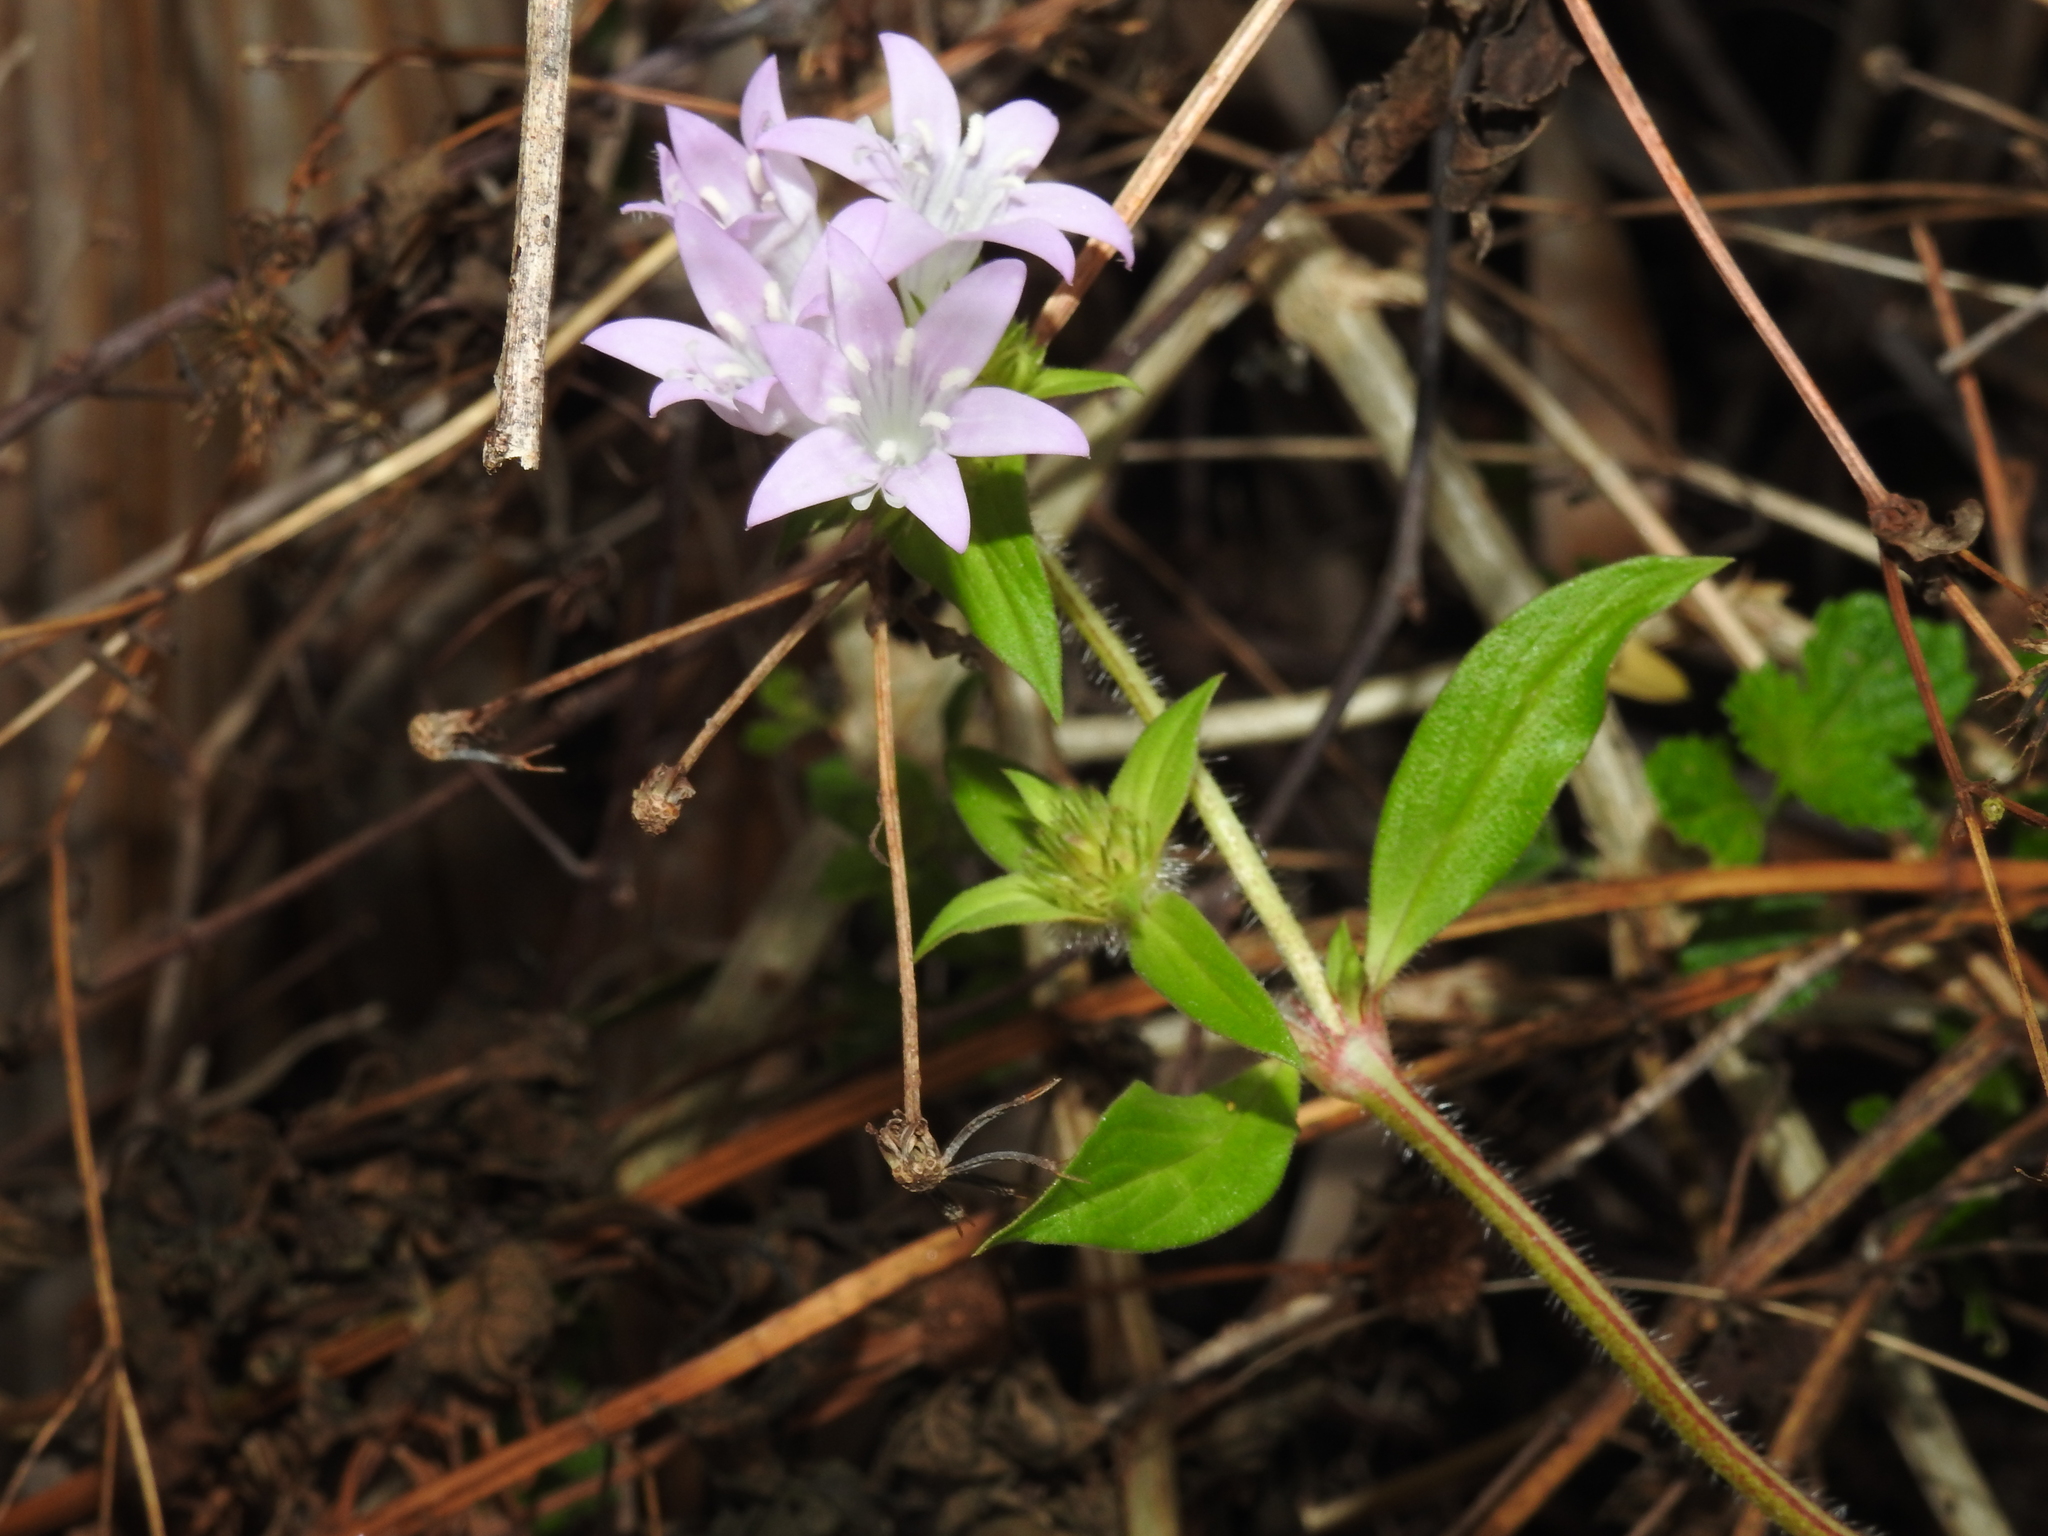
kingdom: Plantae
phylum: Tracheophyta
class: Magnoliopsida
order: Gentianales
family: Rubiaceae
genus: Richardia
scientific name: Richardia grandiflora
